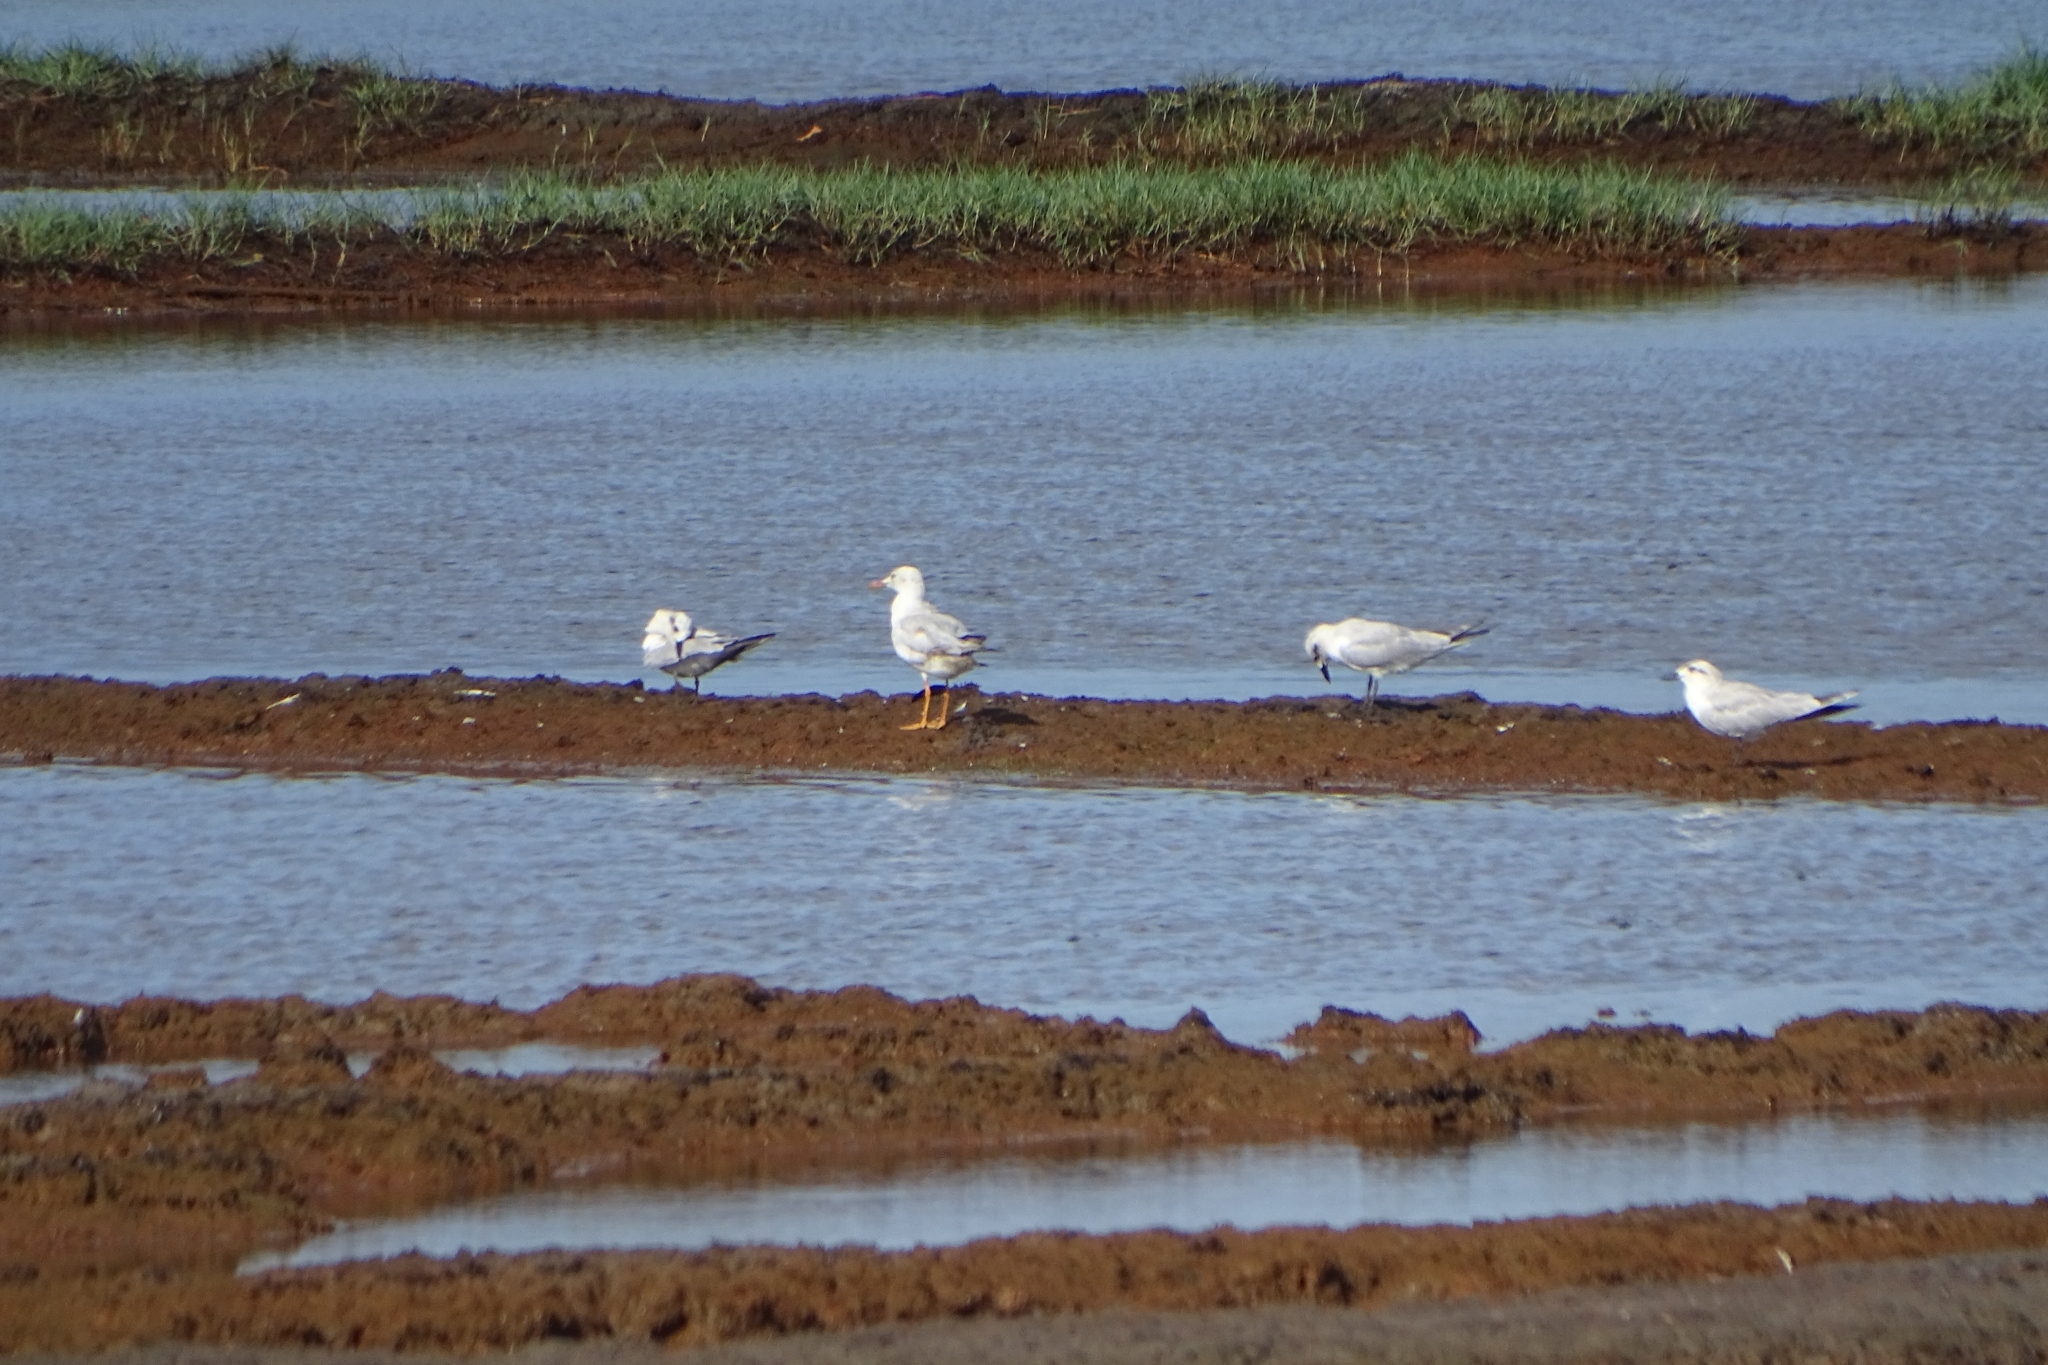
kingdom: Animalia
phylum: Chordata
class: Aves
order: Charadriiformes
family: Laridae
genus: Chroicocephalus
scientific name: Chroicocephalus genei
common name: Slender-billed gull
